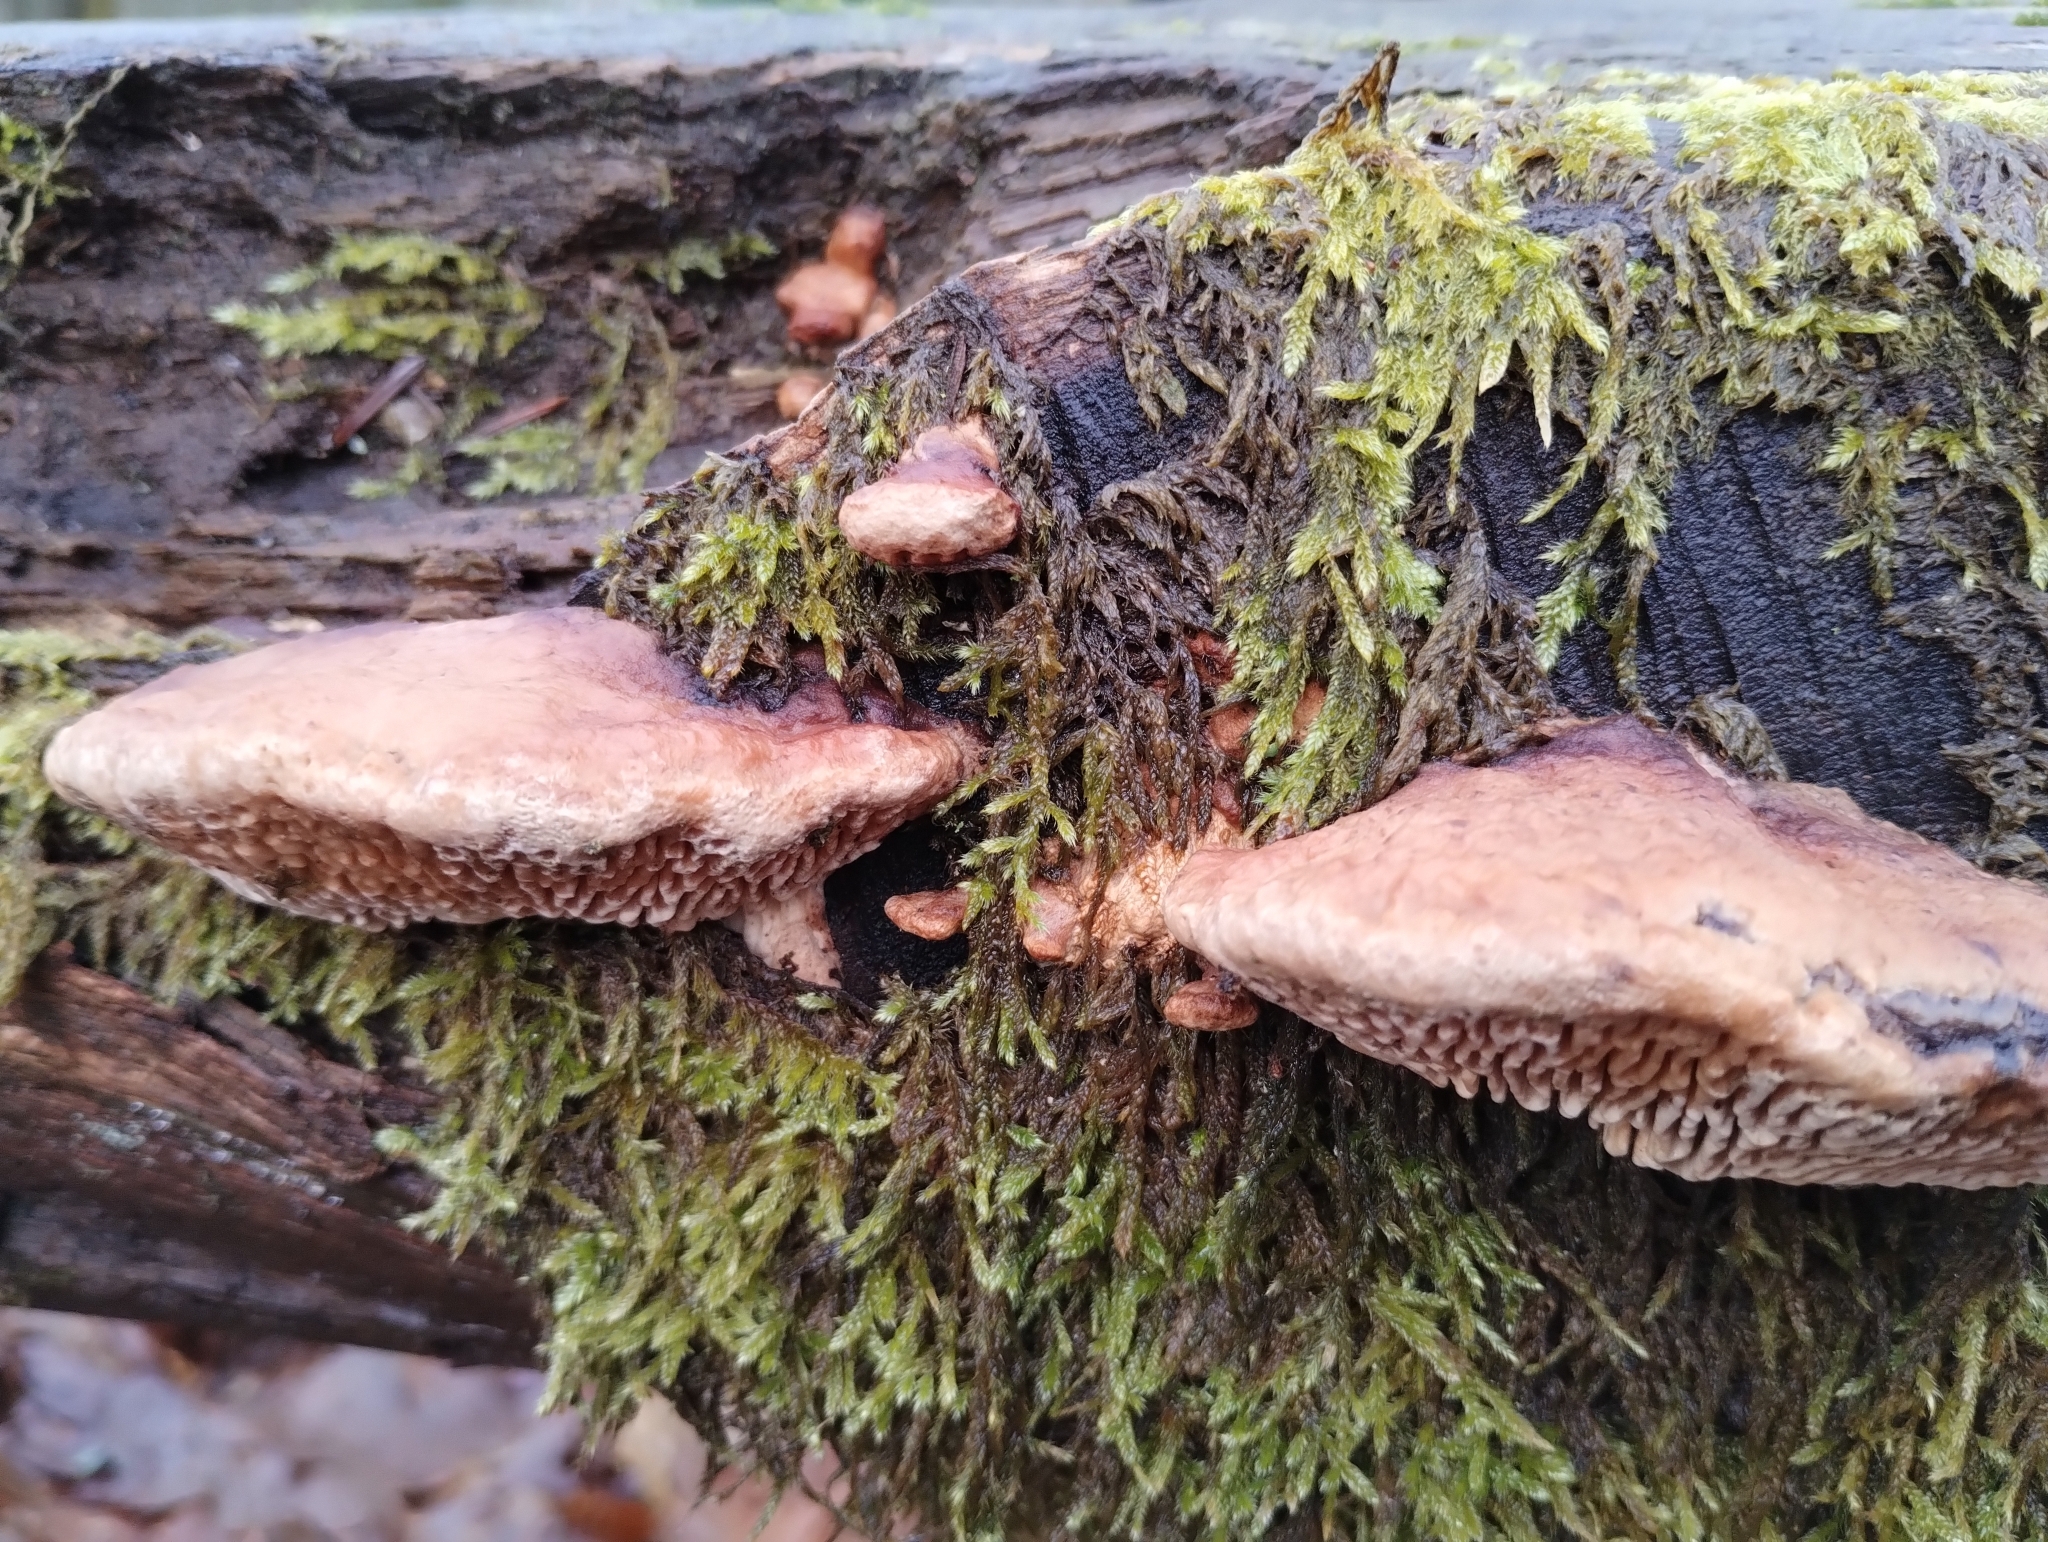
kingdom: Fungi
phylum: Basidiomycota
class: Agaricomycetes
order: Polyporales
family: Fomitopsidaceae
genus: Fomitopsis
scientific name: Fomitopsis
